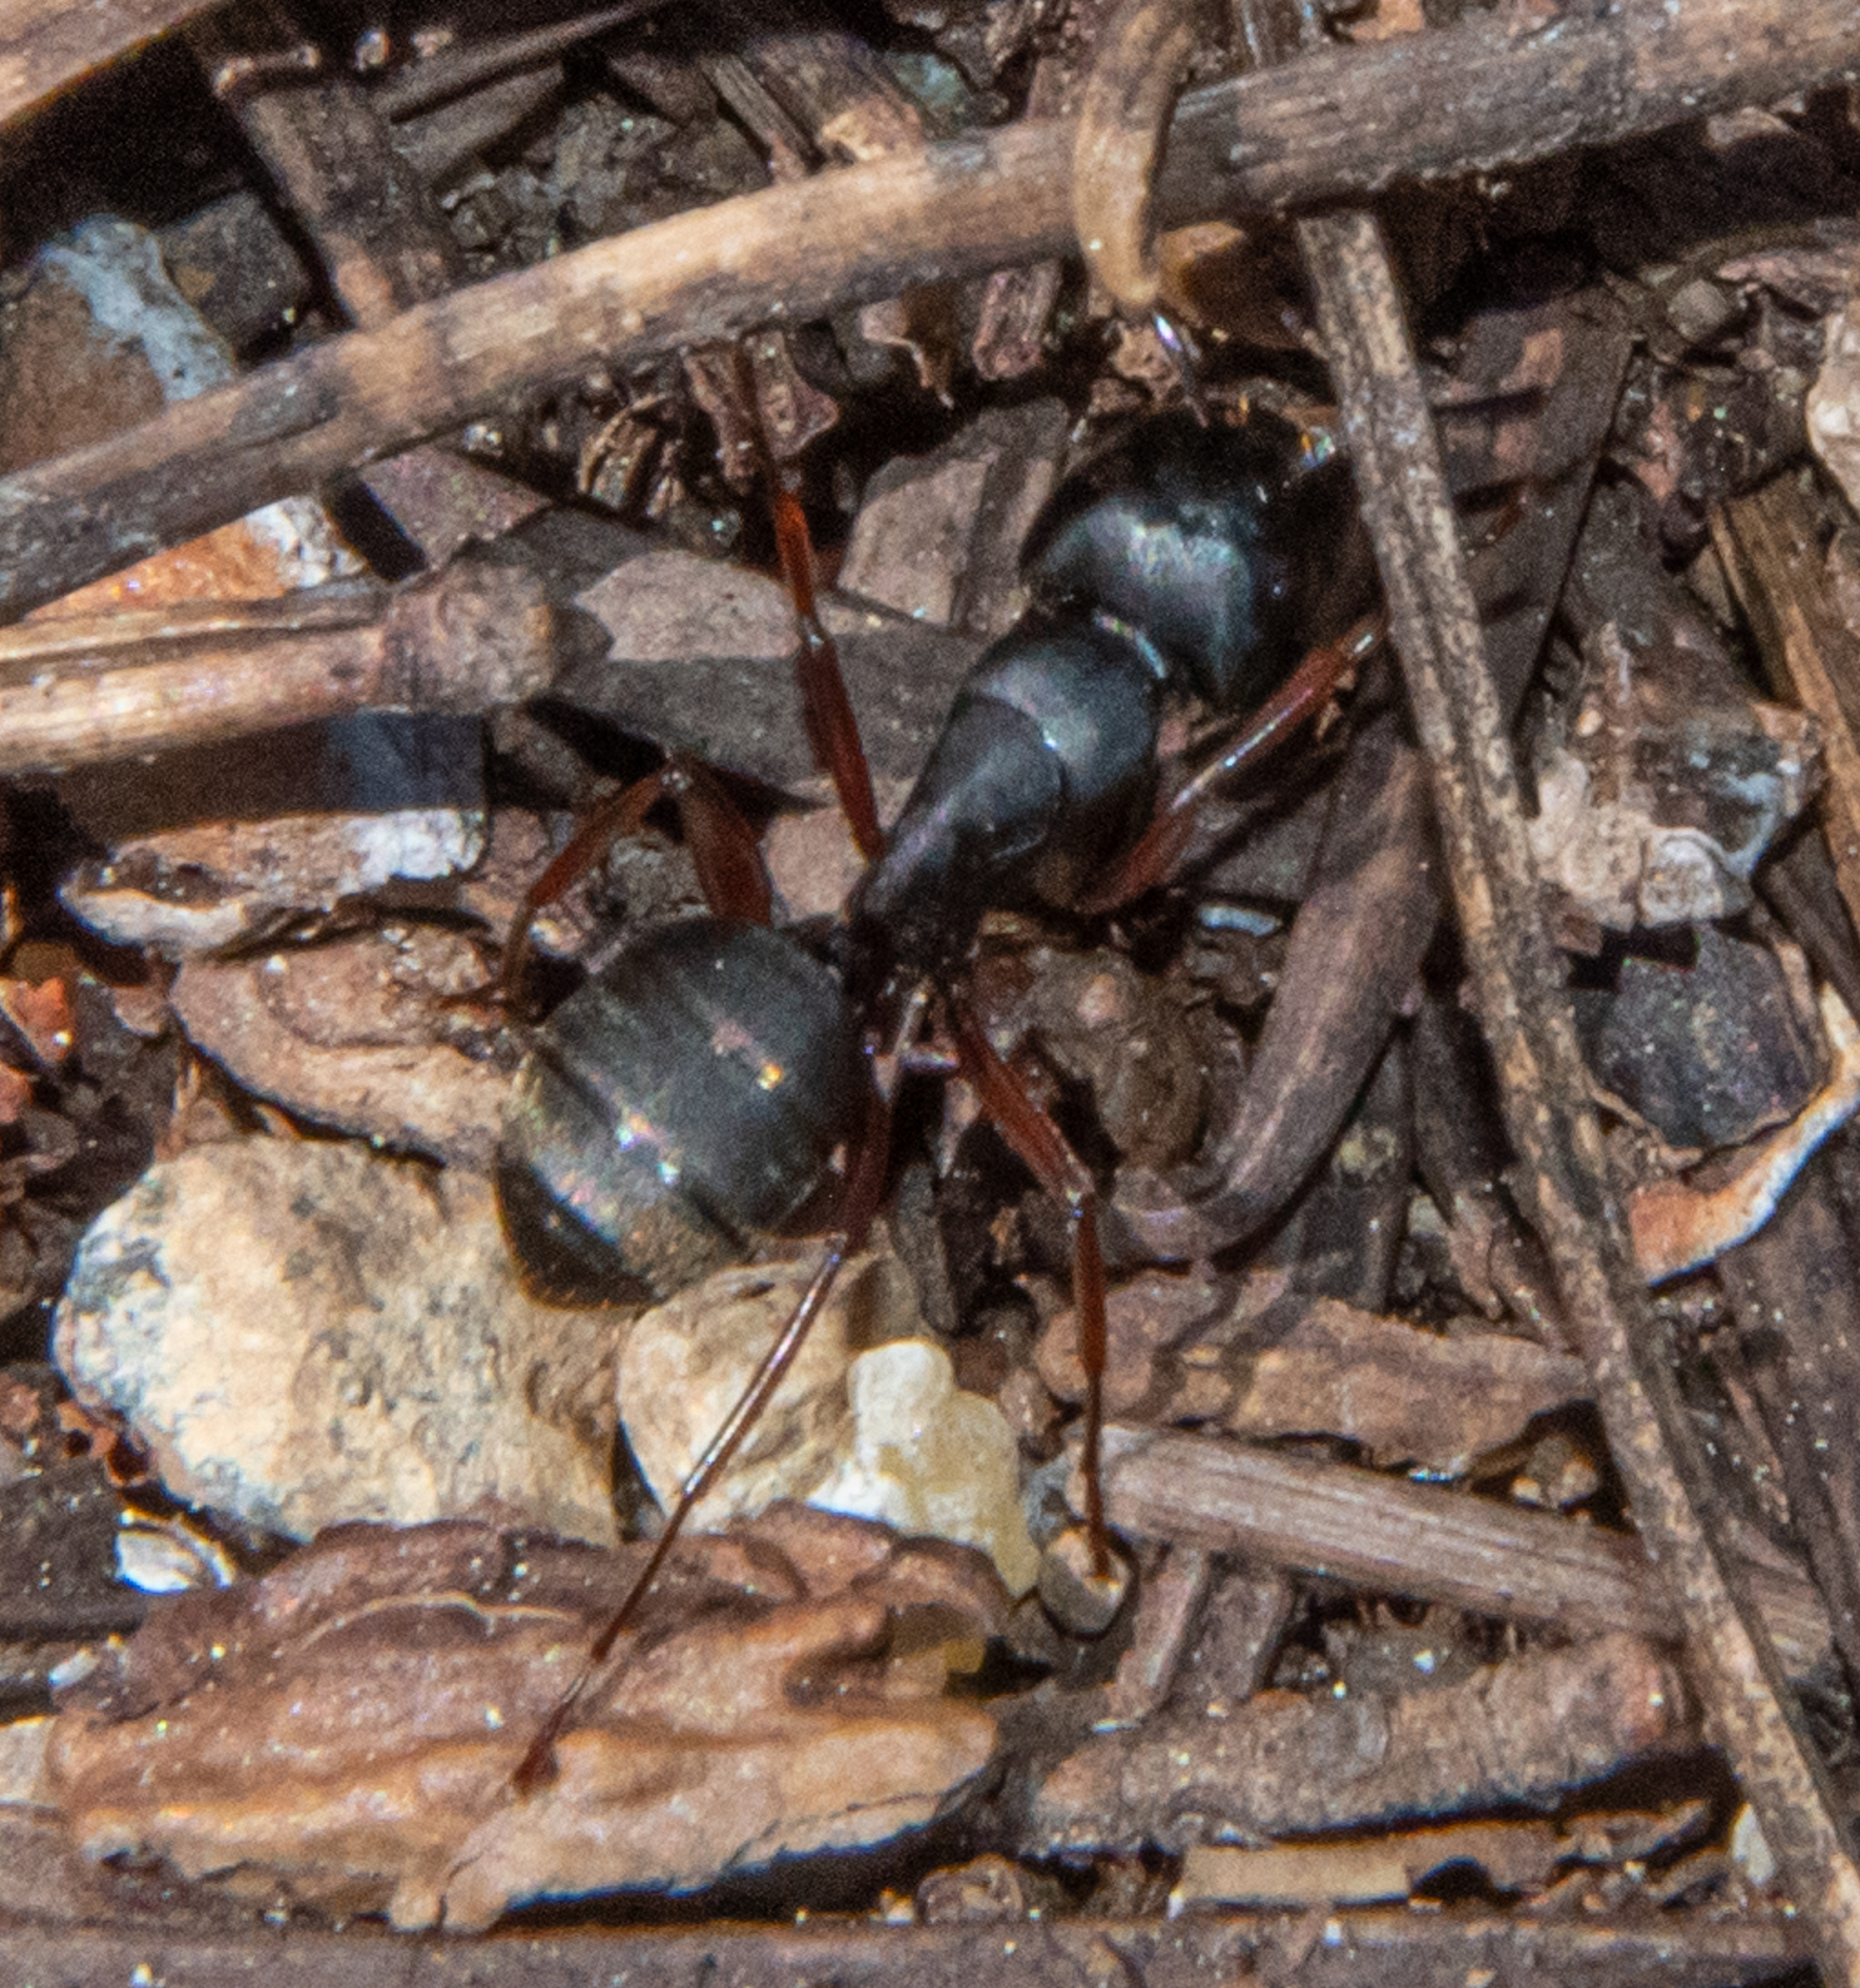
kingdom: Animalia
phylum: Arthropoda
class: Insecta
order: Hymenoptera
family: Formicidae
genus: Camponotus
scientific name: Camponotus modoc
